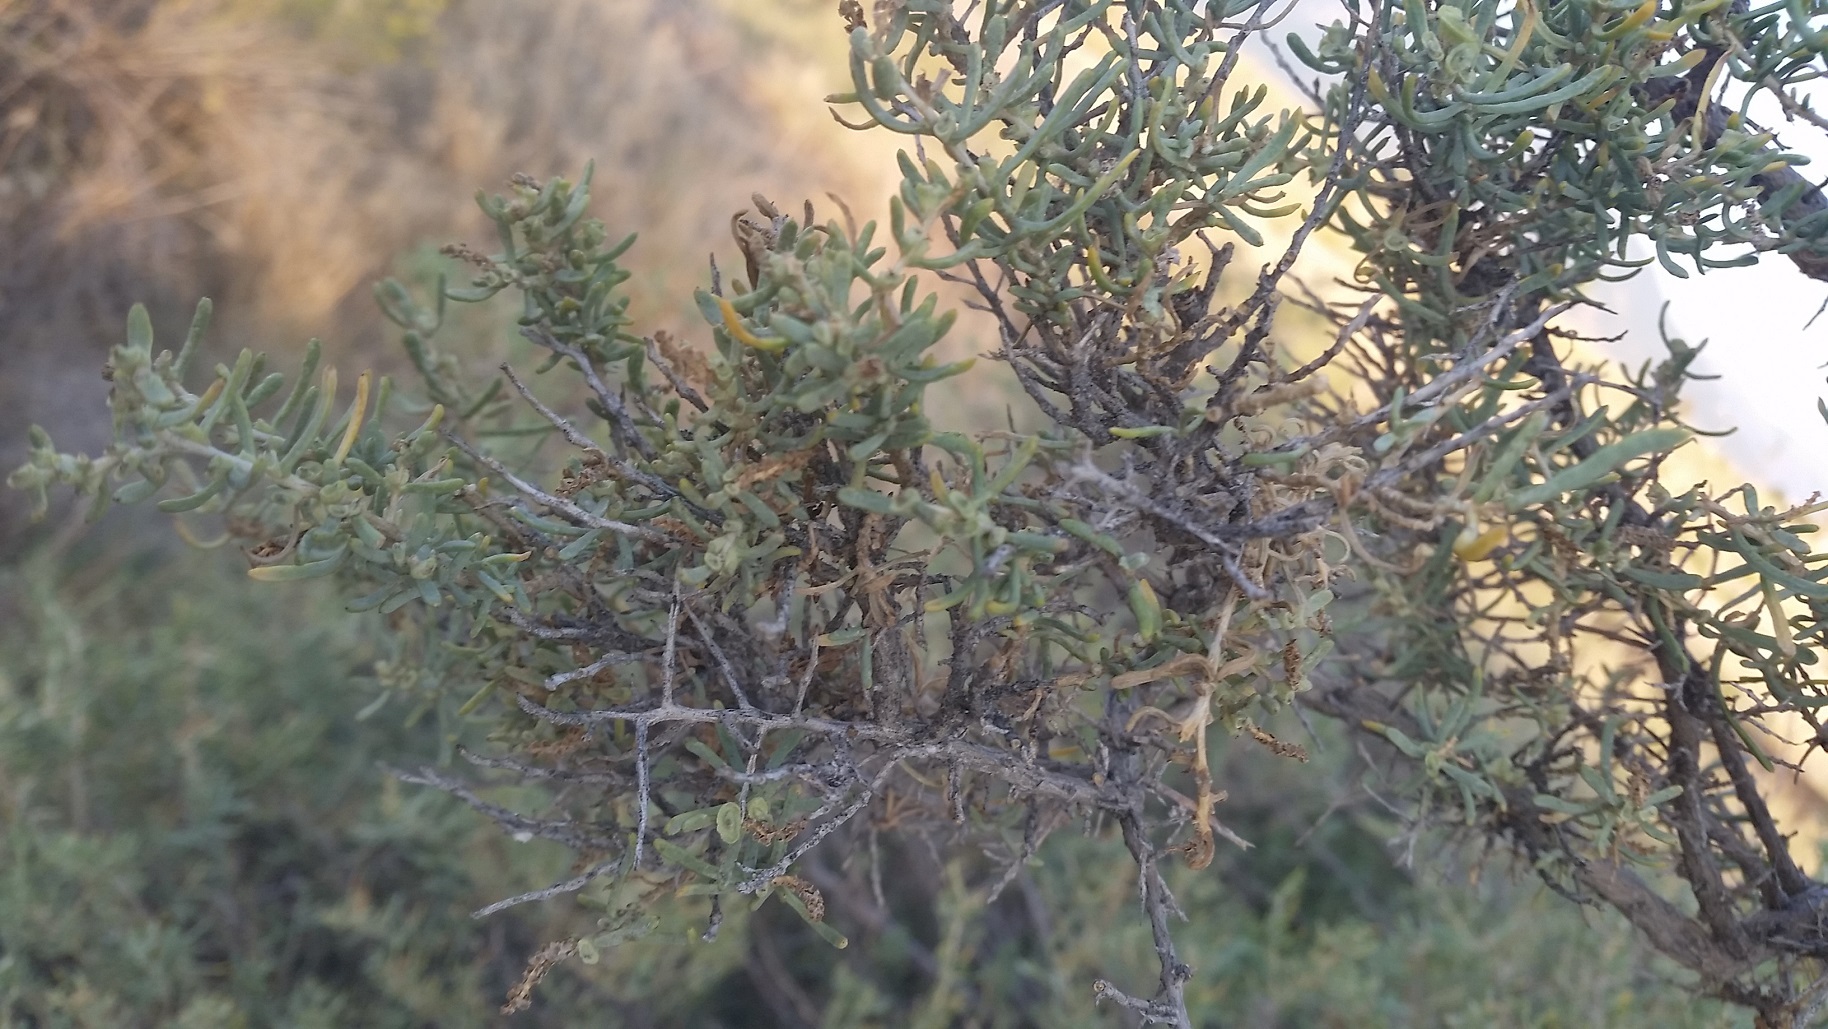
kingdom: Plantae
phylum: Tracheophyta
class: Magnoliopsida
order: Caryophyllales
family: Sarcobataceae
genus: Sarcobatus
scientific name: Sarcobatus vermiculatus
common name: Greasewood
